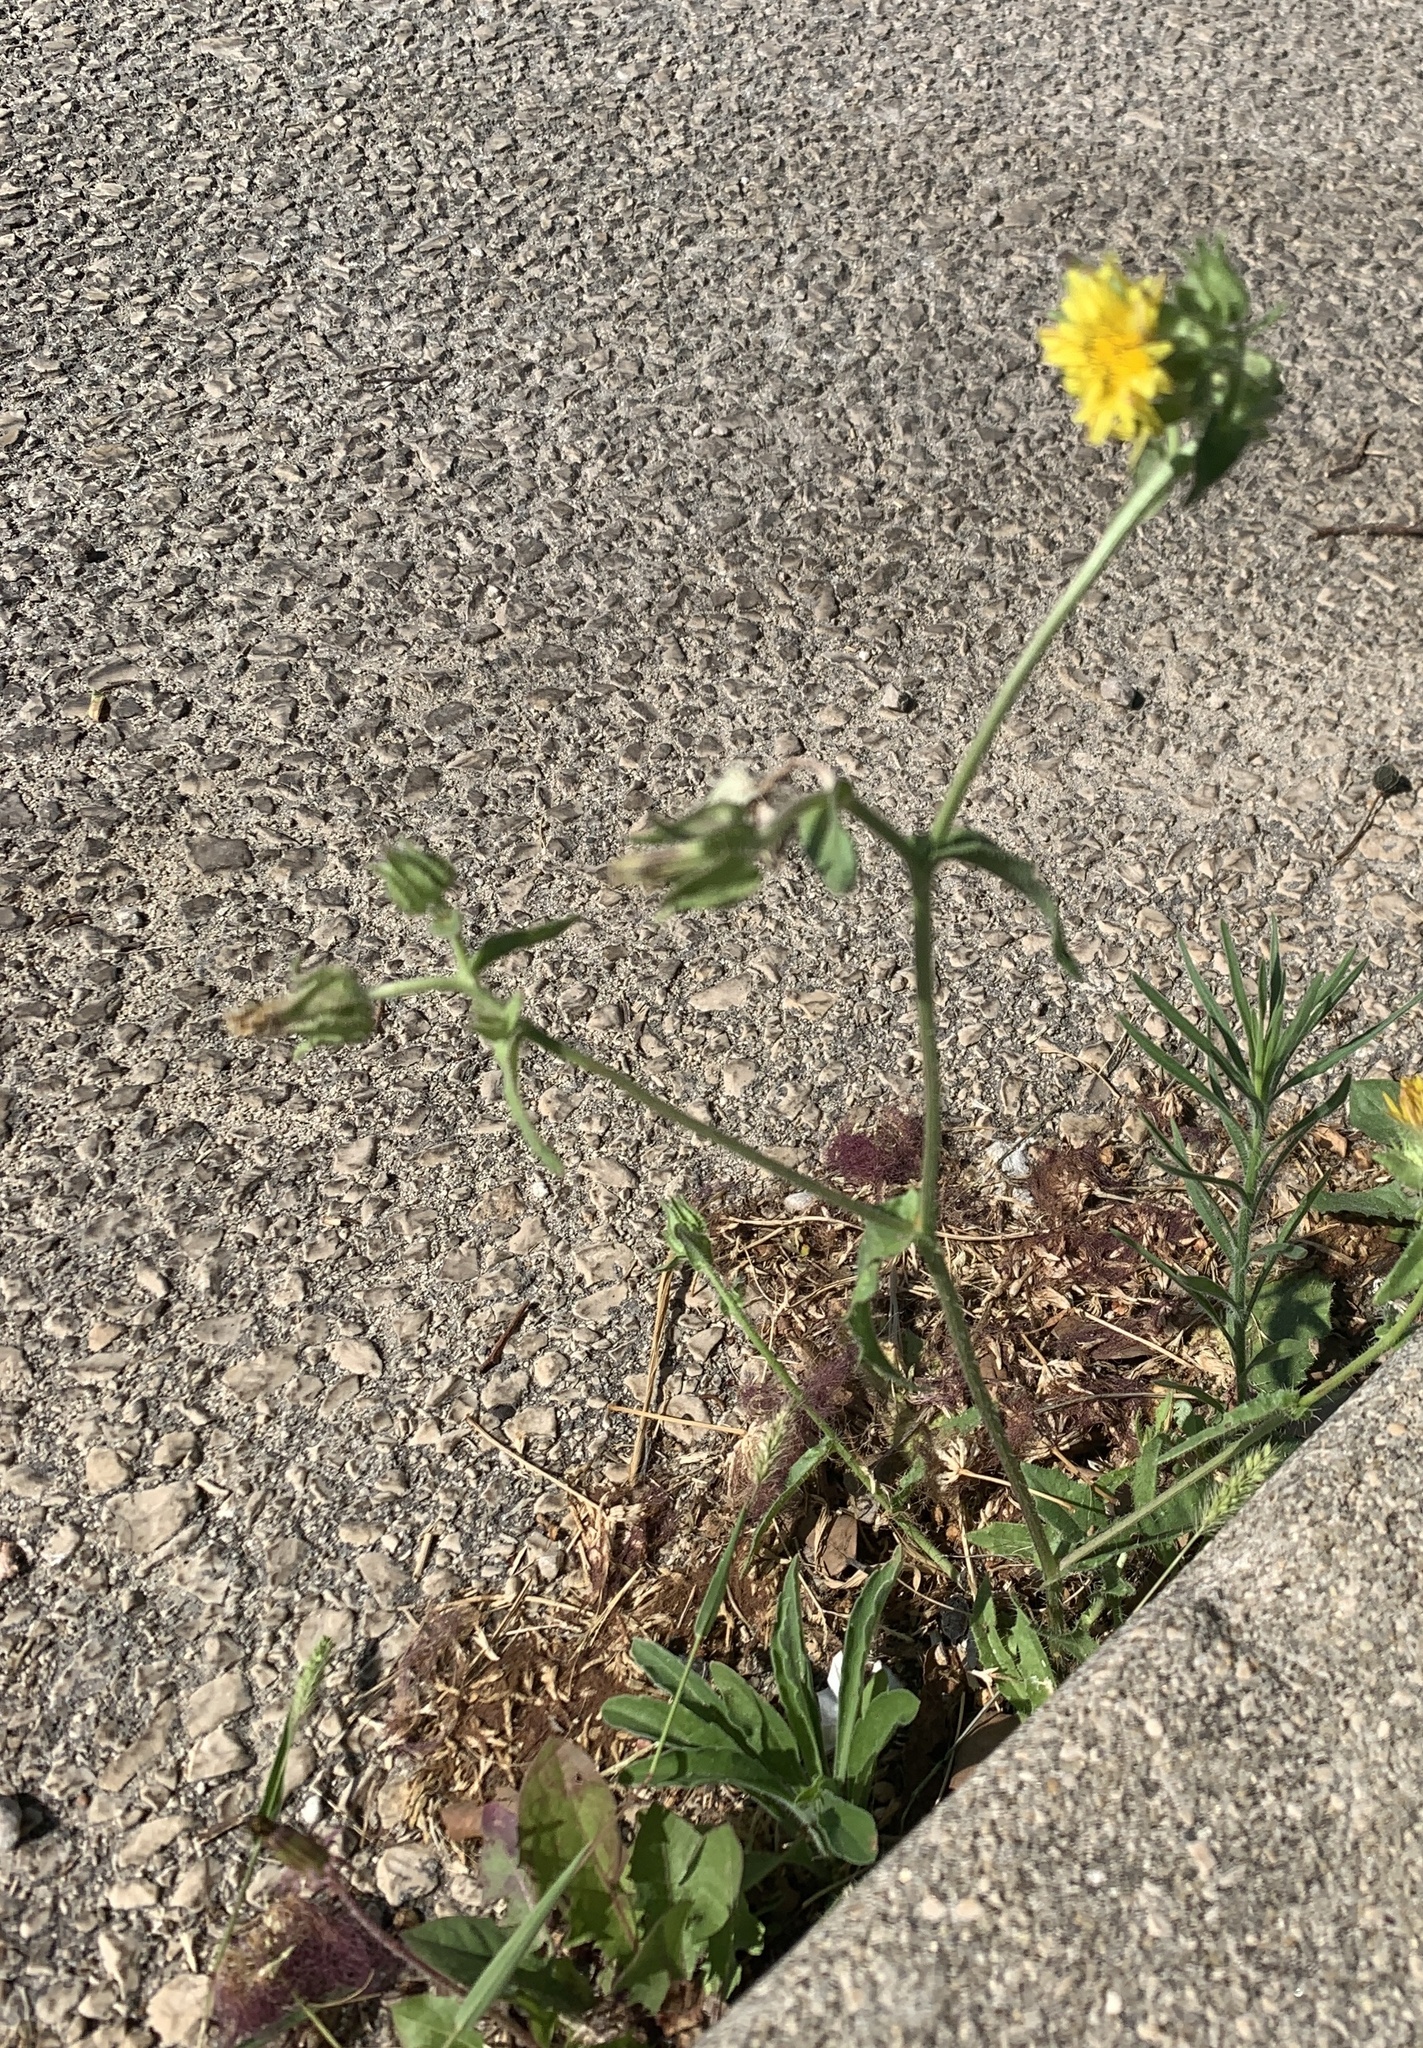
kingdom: Plantae
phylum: Tracheophyta
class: Magnoliopsida
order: Asterales
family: Asteraceae
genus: Helminthotheca
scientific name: Helminthotheca echioides
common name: Ox-tongue
